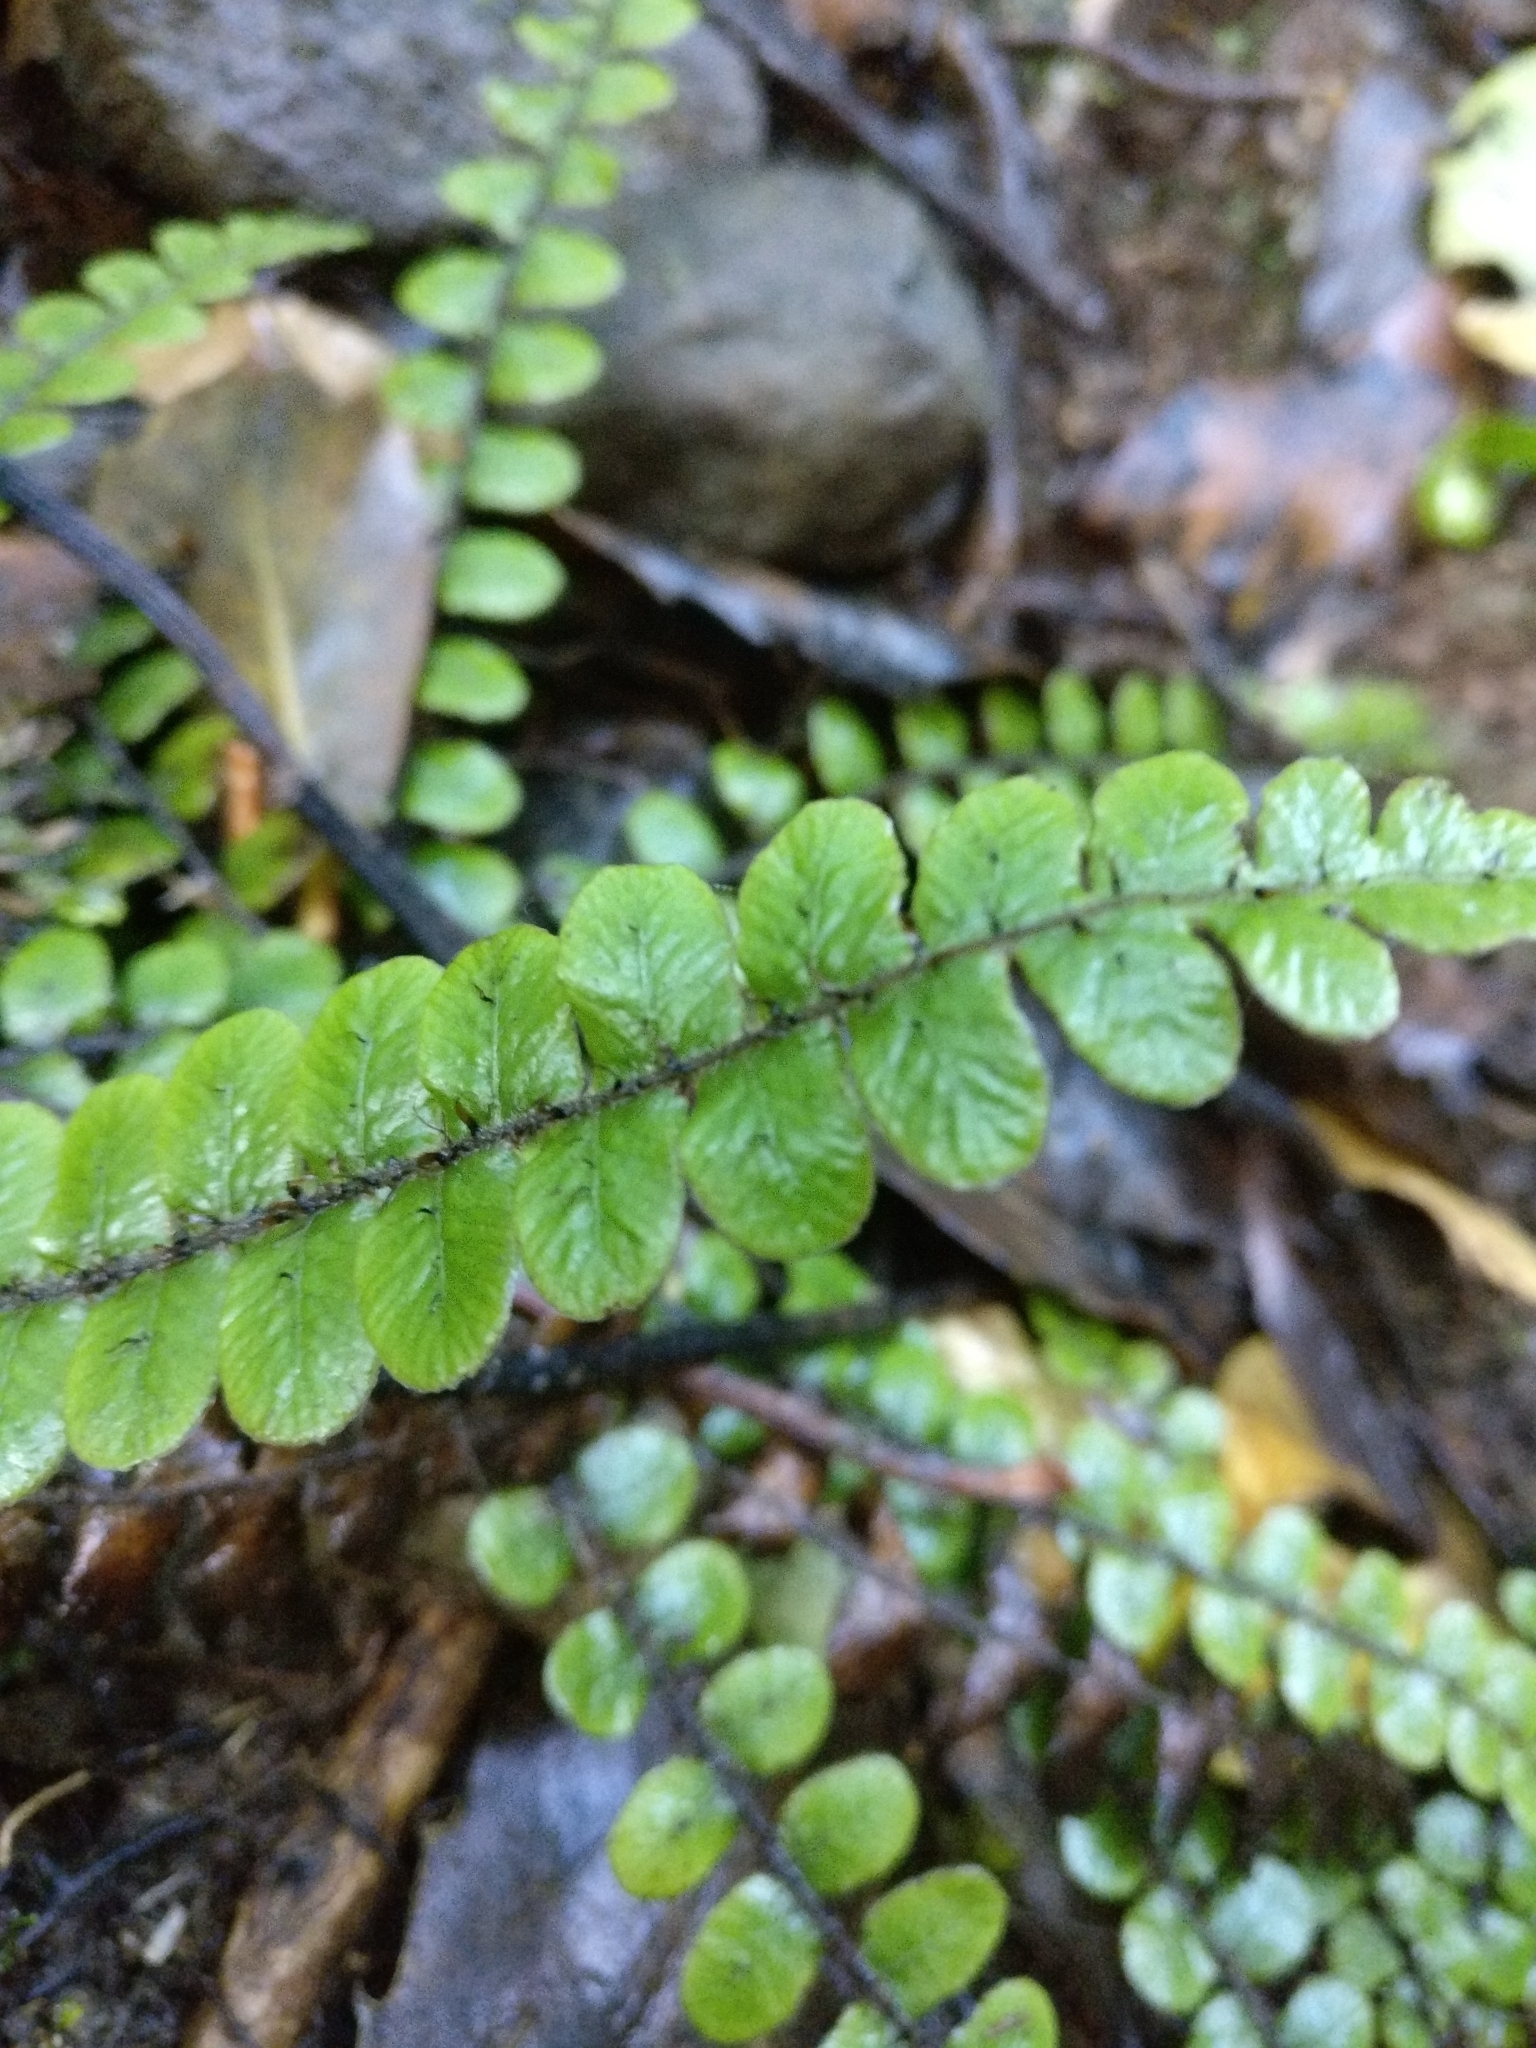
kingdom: Plantae
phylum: Tracheophyta
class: Polypodiopsida
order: Polypodiales
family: Blechnaceae
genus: Cranfillia
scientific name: Cranfillia fluviatilis
